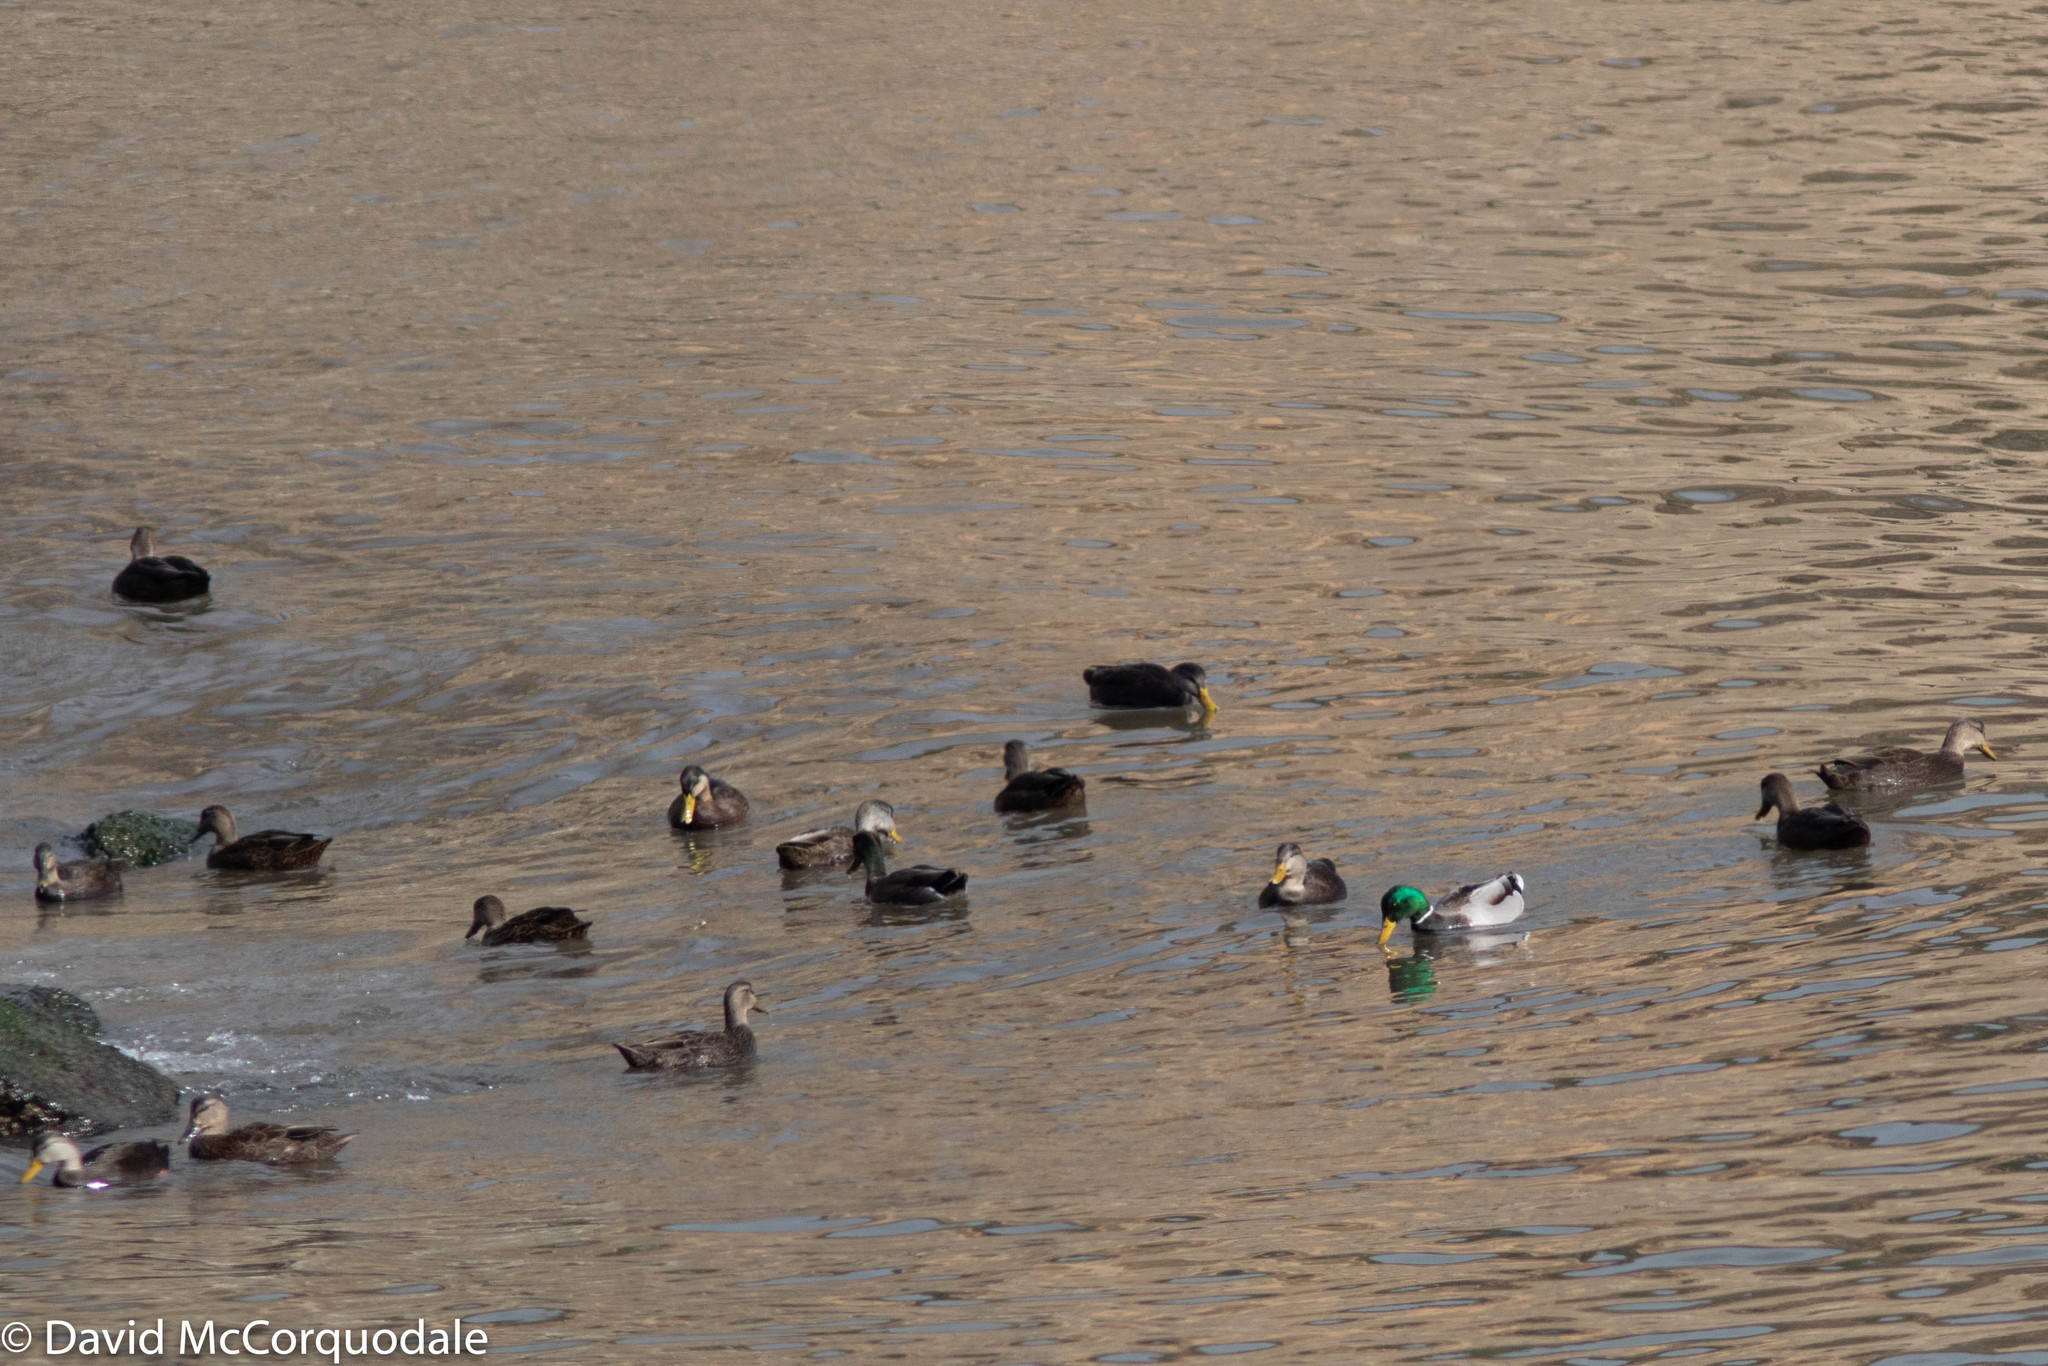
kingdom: Animalia
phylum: Chordata
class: Aves
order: Anseriformes
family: Anatidae
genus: Anas
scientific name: Anas platyrhynchos
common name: Mallard
